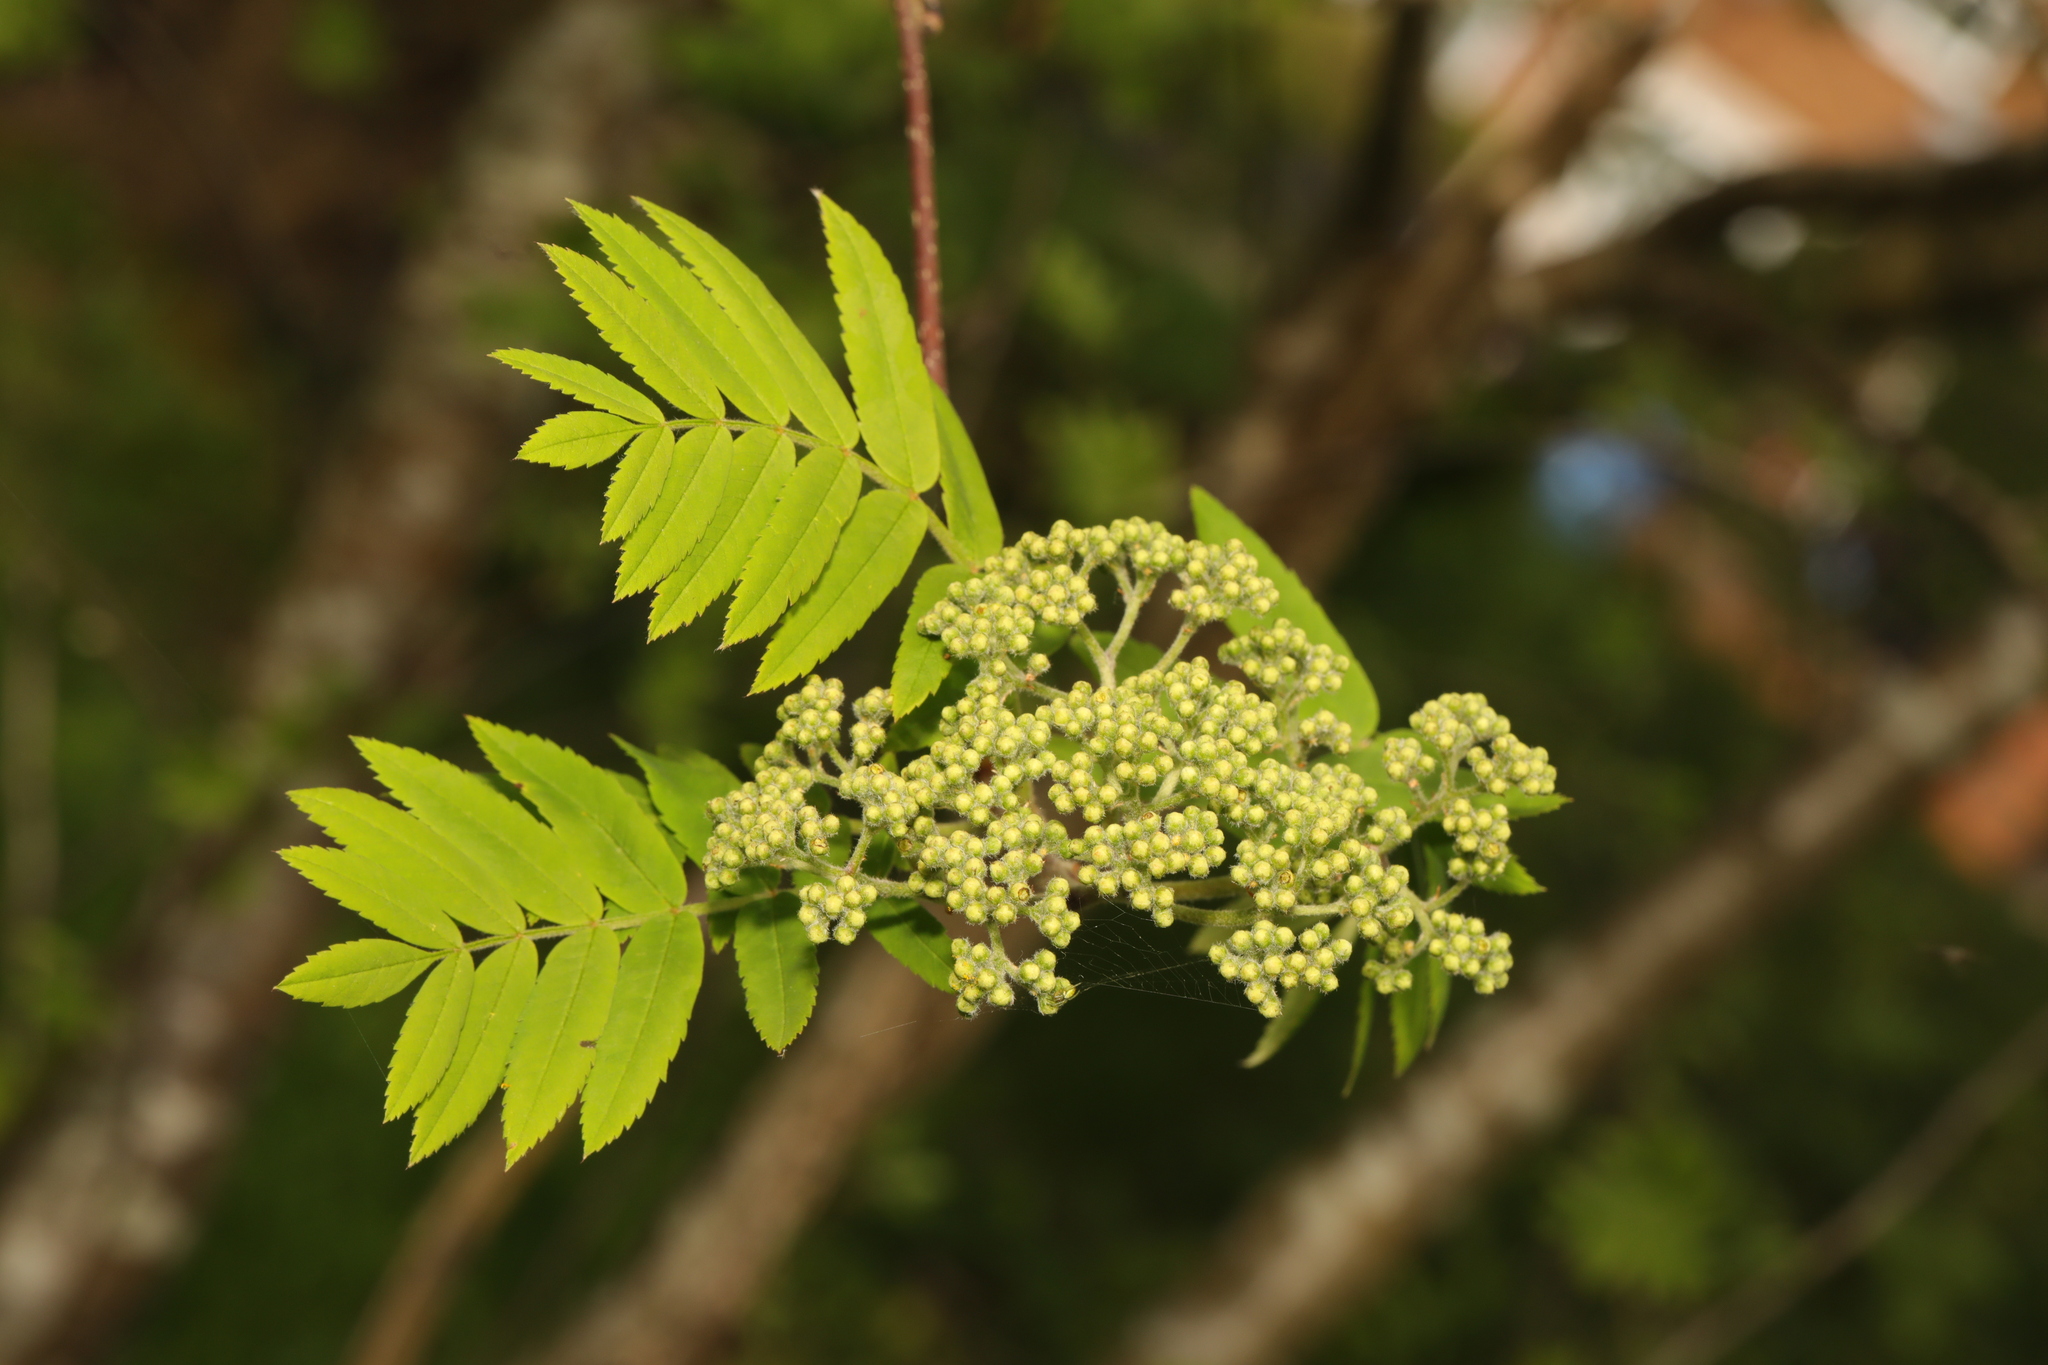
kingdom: Plantae
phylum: Tracheophyta
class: Magnoliopsida
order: Rosales
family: Rosaceae
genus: Sorbus
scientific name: Sorbus aucuparia
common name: Rowan
